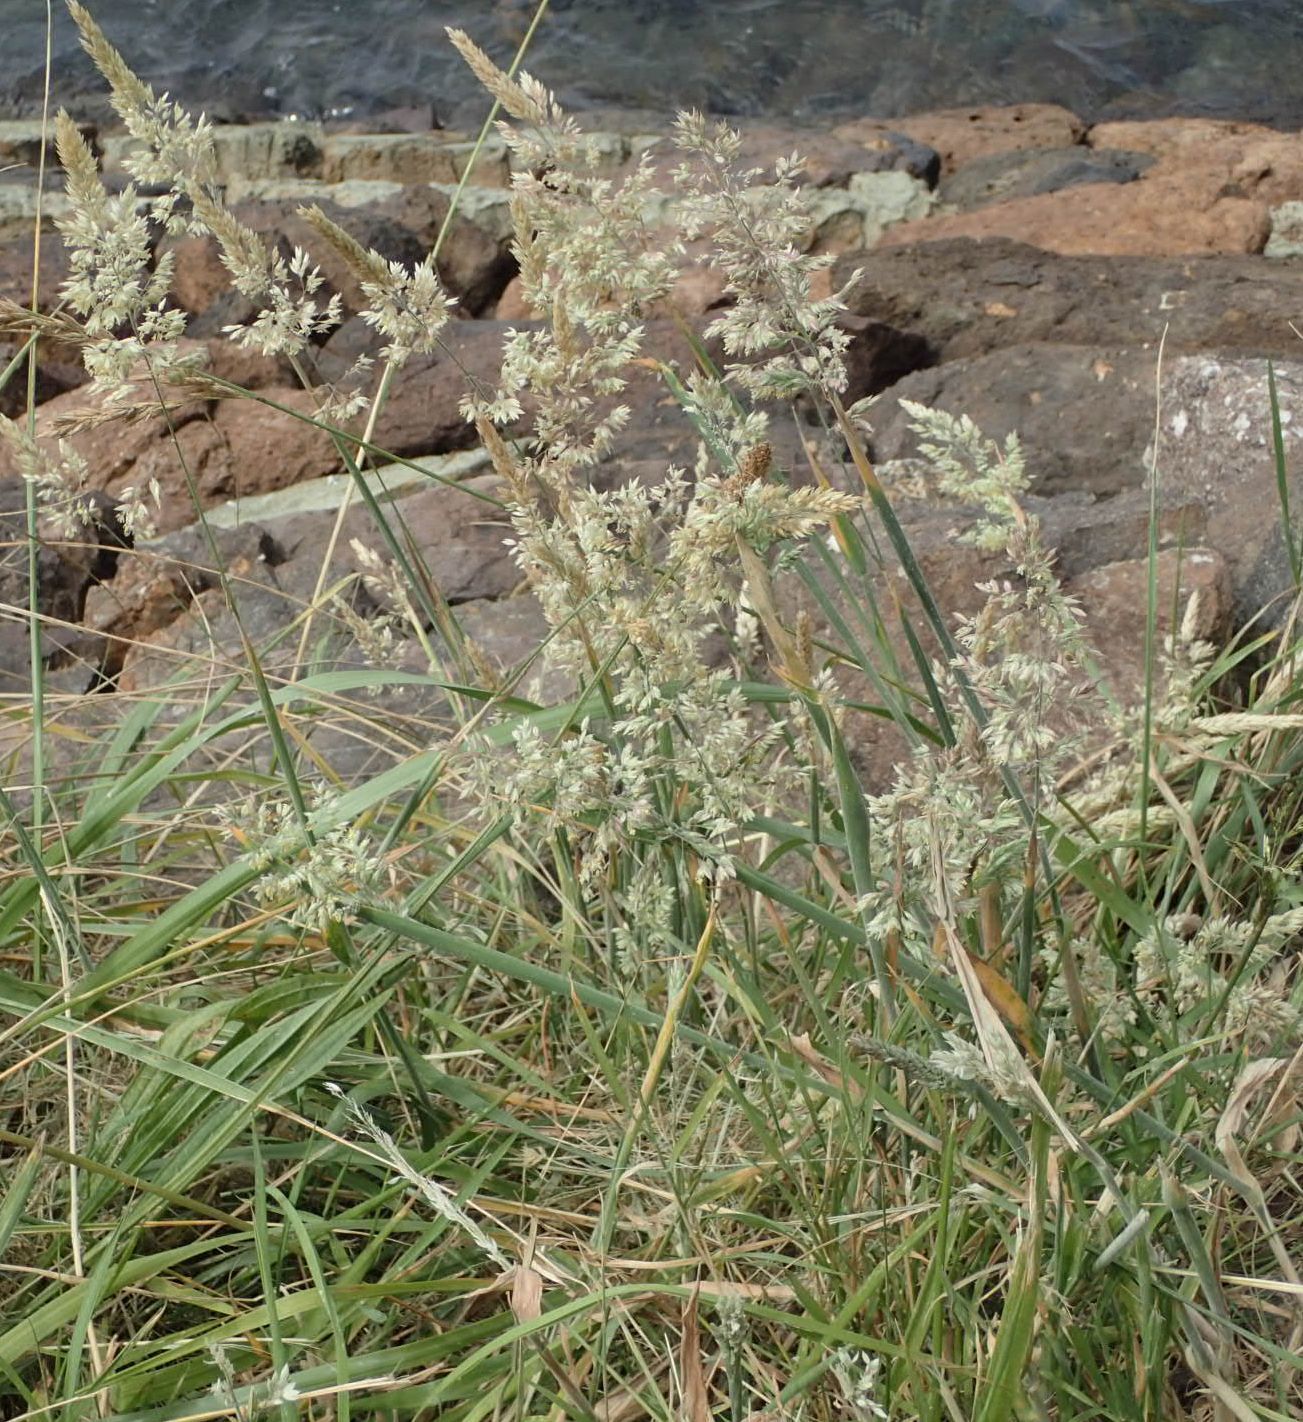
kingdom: Plantae
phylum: Tracheophyta
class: Liliopsida
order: Poales
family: Poaceae
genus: Holcus
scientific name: Holcus lanatus
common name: Yorkshire-fog
